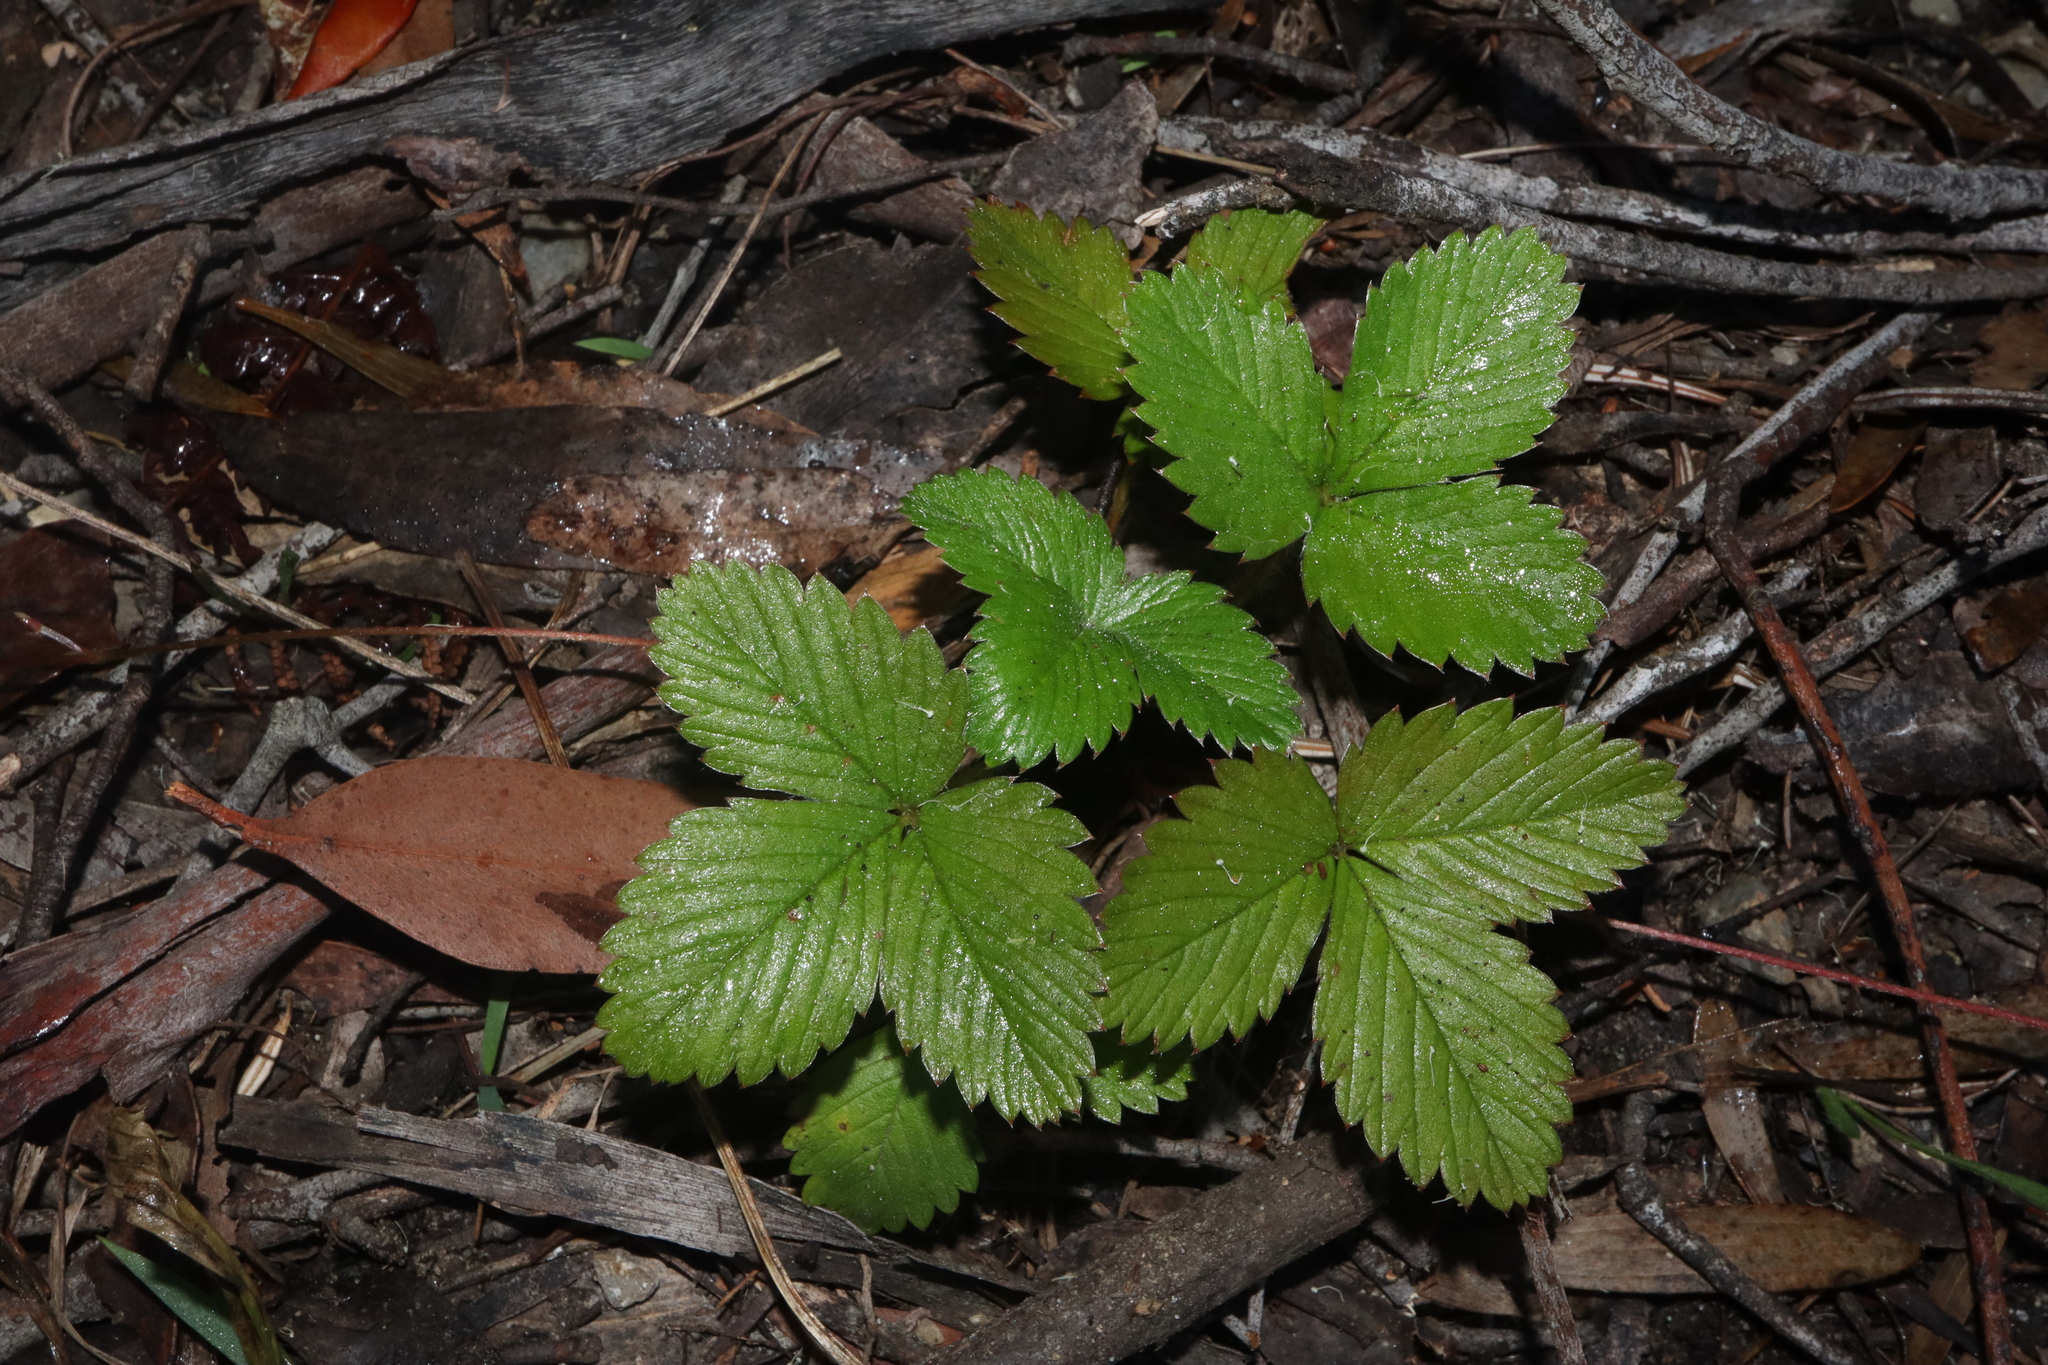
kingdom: Plantae
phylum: Tracheophyta
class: Magnoliopsida
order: Rosales
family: Rosaceae
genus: Potentilla
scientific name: Potentilla indica
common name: Yellow-flowered strawberry
